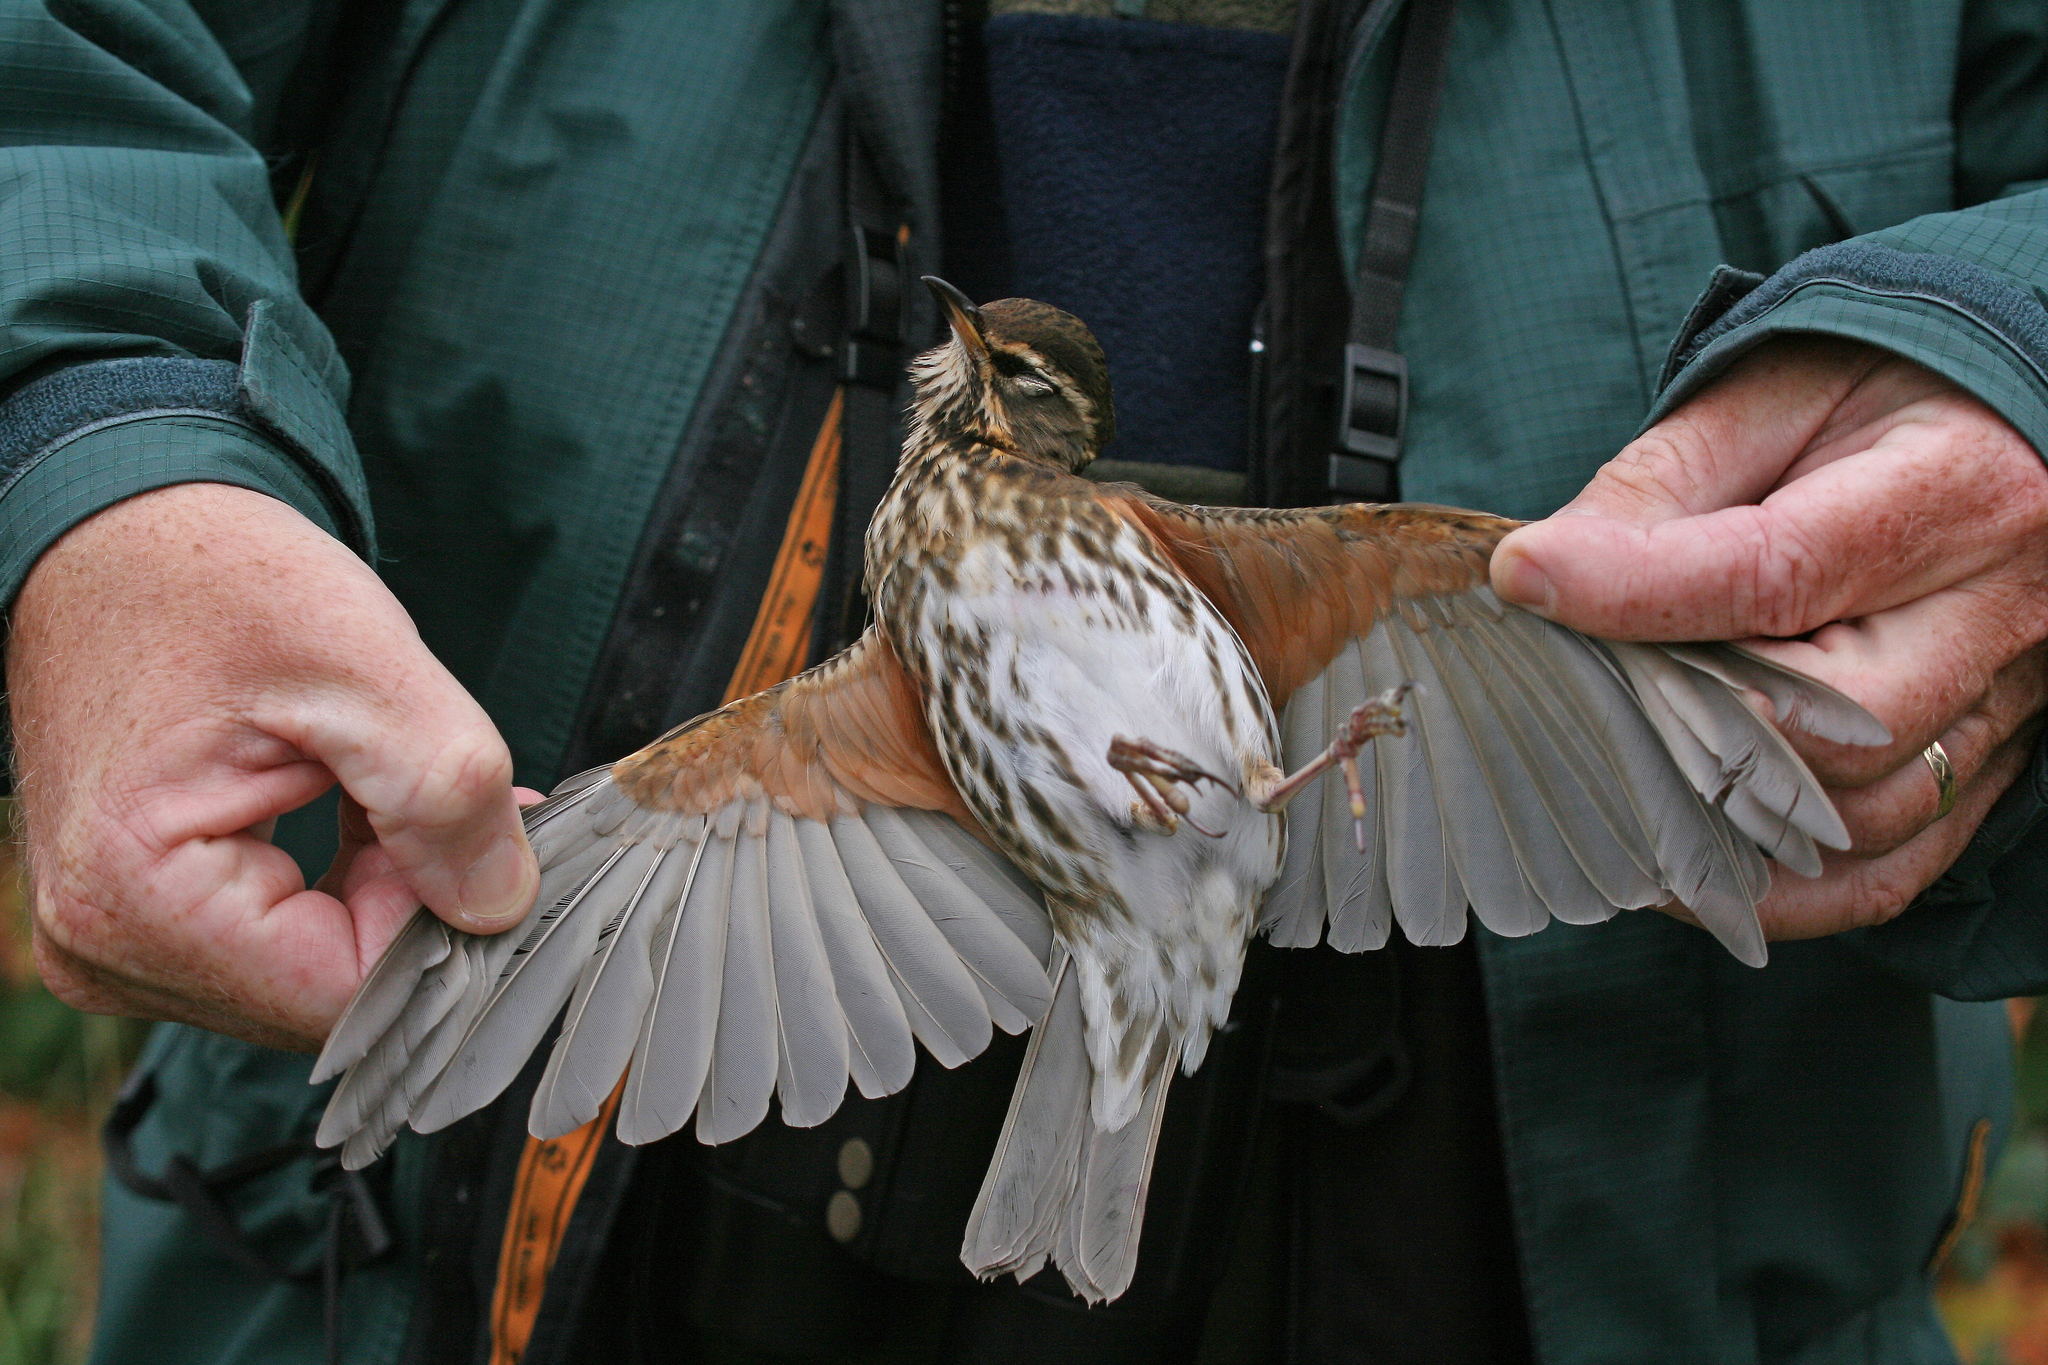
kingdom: Animalia
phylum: Chordata
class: Aves
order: Passeriformes
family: Turdidae
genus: Turdus
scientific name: Turdus iliacus
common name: Redwing
